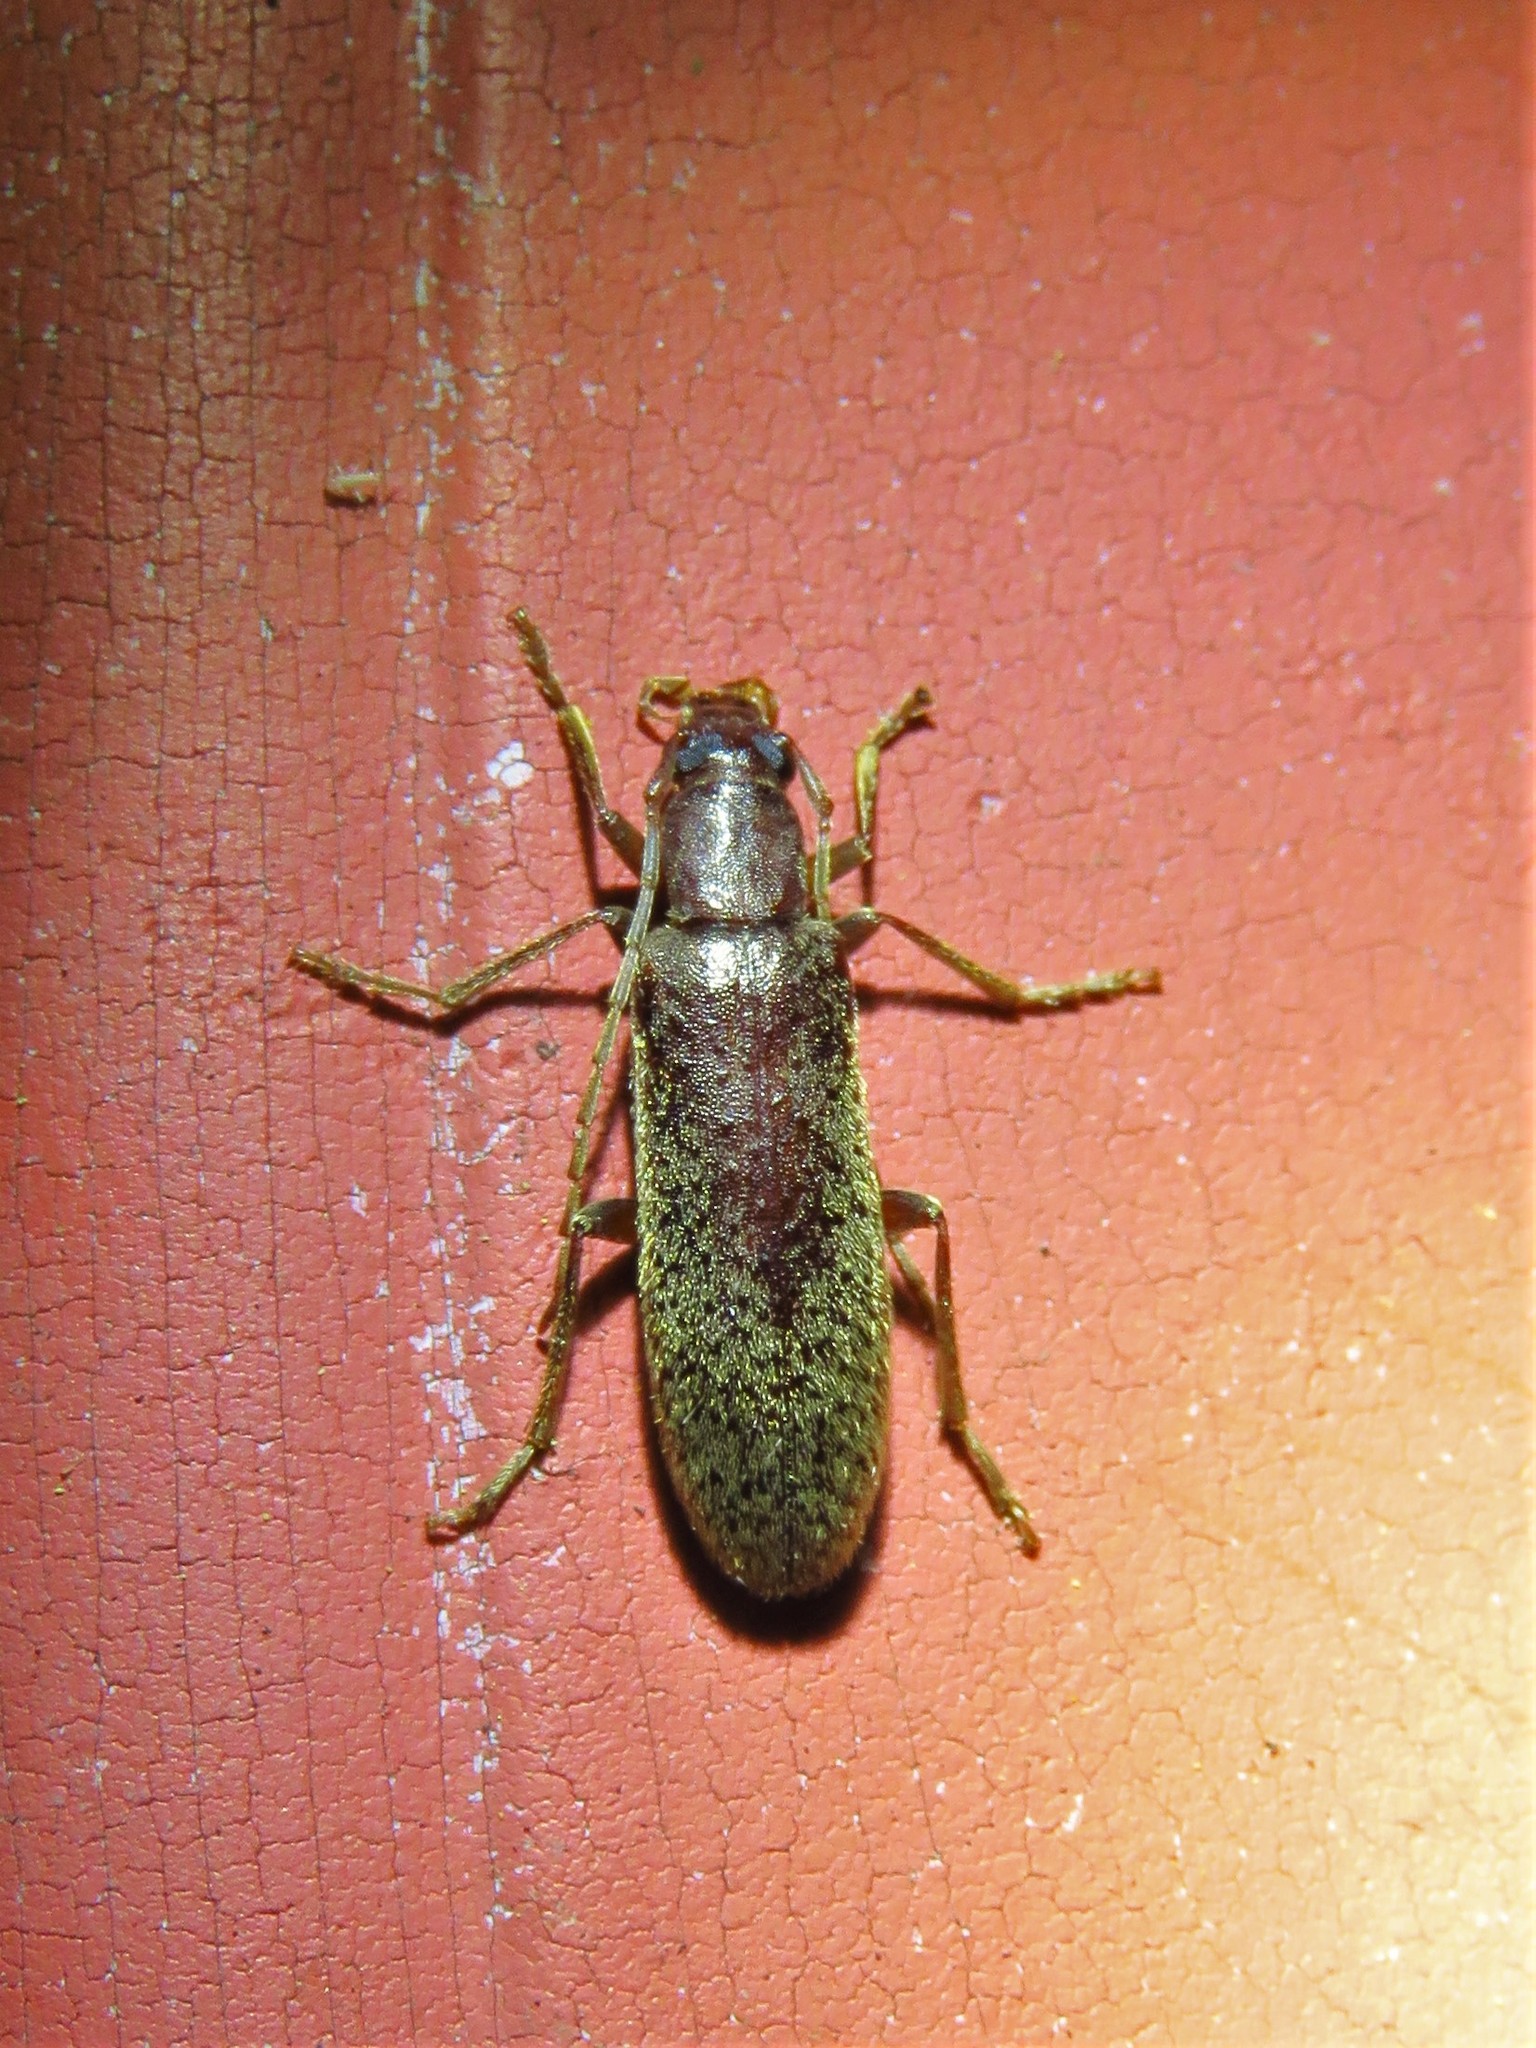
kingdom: Animalia
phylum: Arthropoda
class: Insecta
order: Coleoptera
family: Oedemeridae
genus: Sparedrus
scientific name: Sparedrus aspersus
